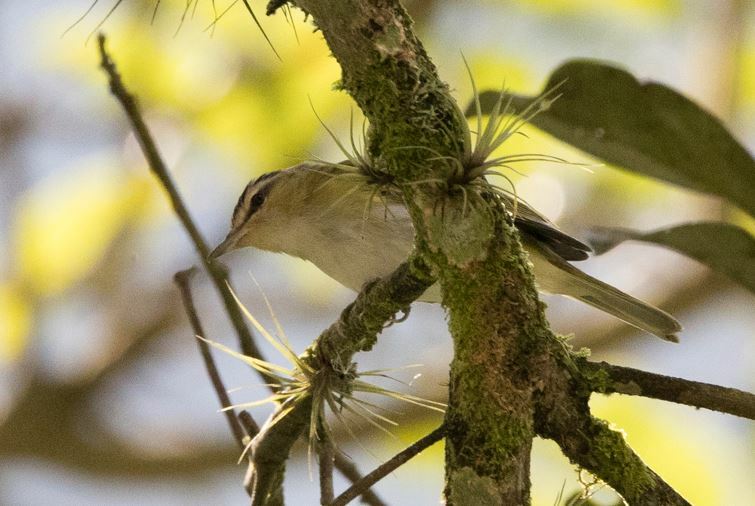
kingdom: Animalia
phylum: Chordata
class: Aves
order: Passeriformes
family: Vireonidae
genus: Vireo
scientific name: Vireo olivaceus
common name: Red-eyed vireo
